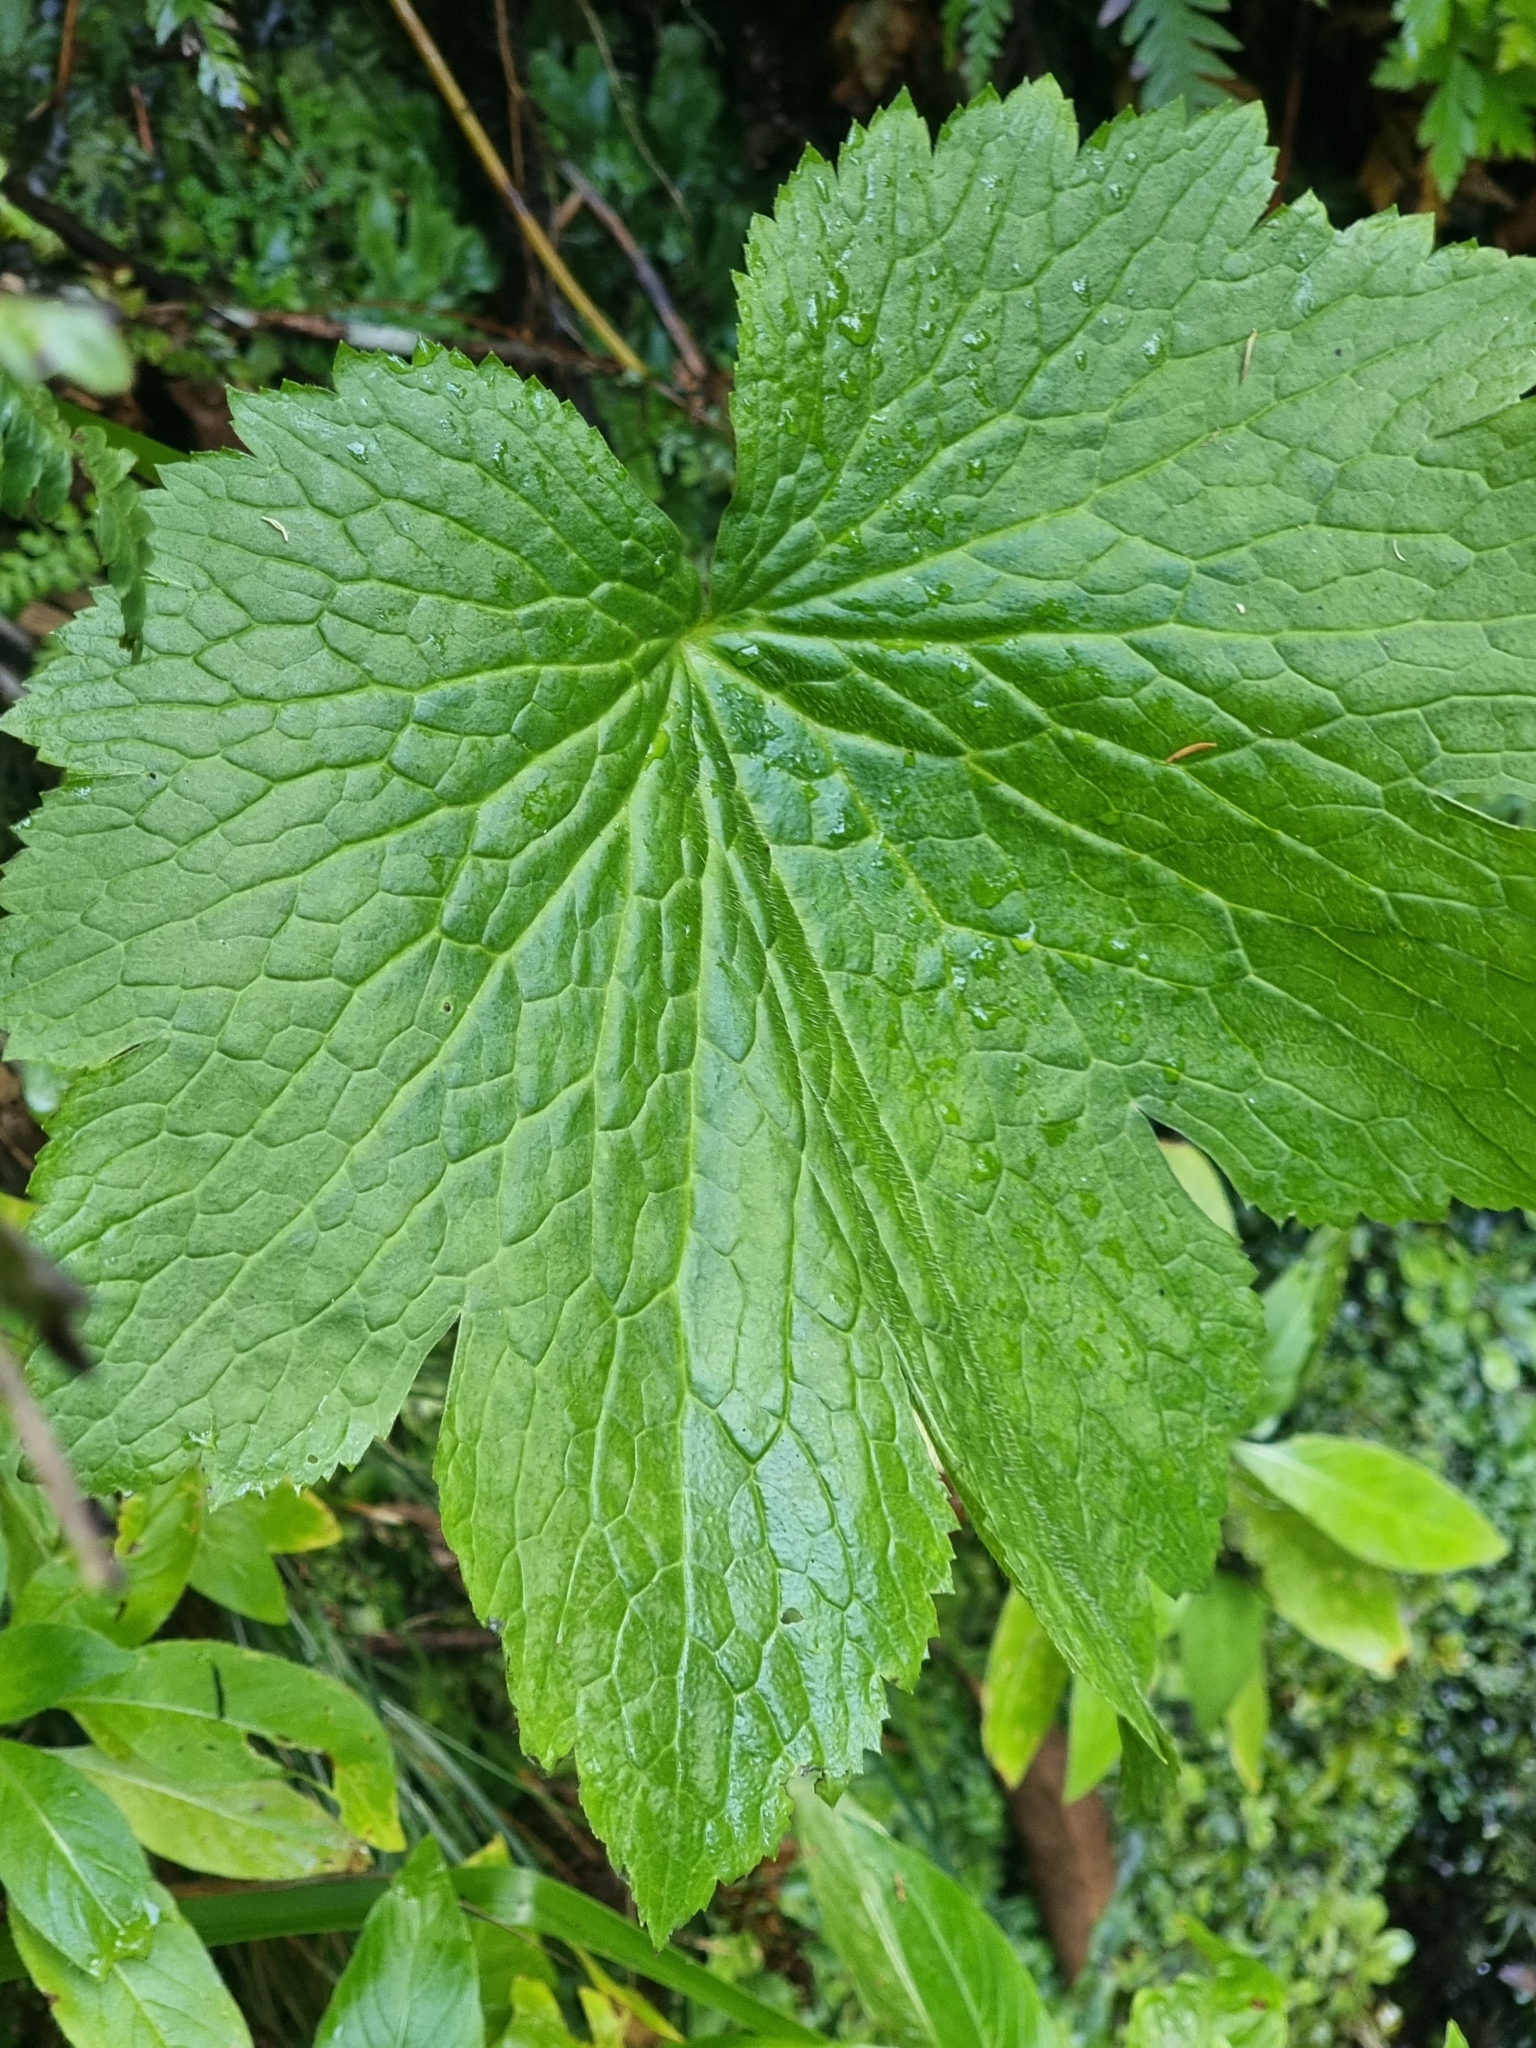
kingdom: Plantae
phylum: Tracheophyta
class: Magnoliopsida
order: Ranunculales
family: Ranunculaceae
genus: Ranunculus
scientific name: Ranunculus cortusifolius
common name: Azores buttercup
